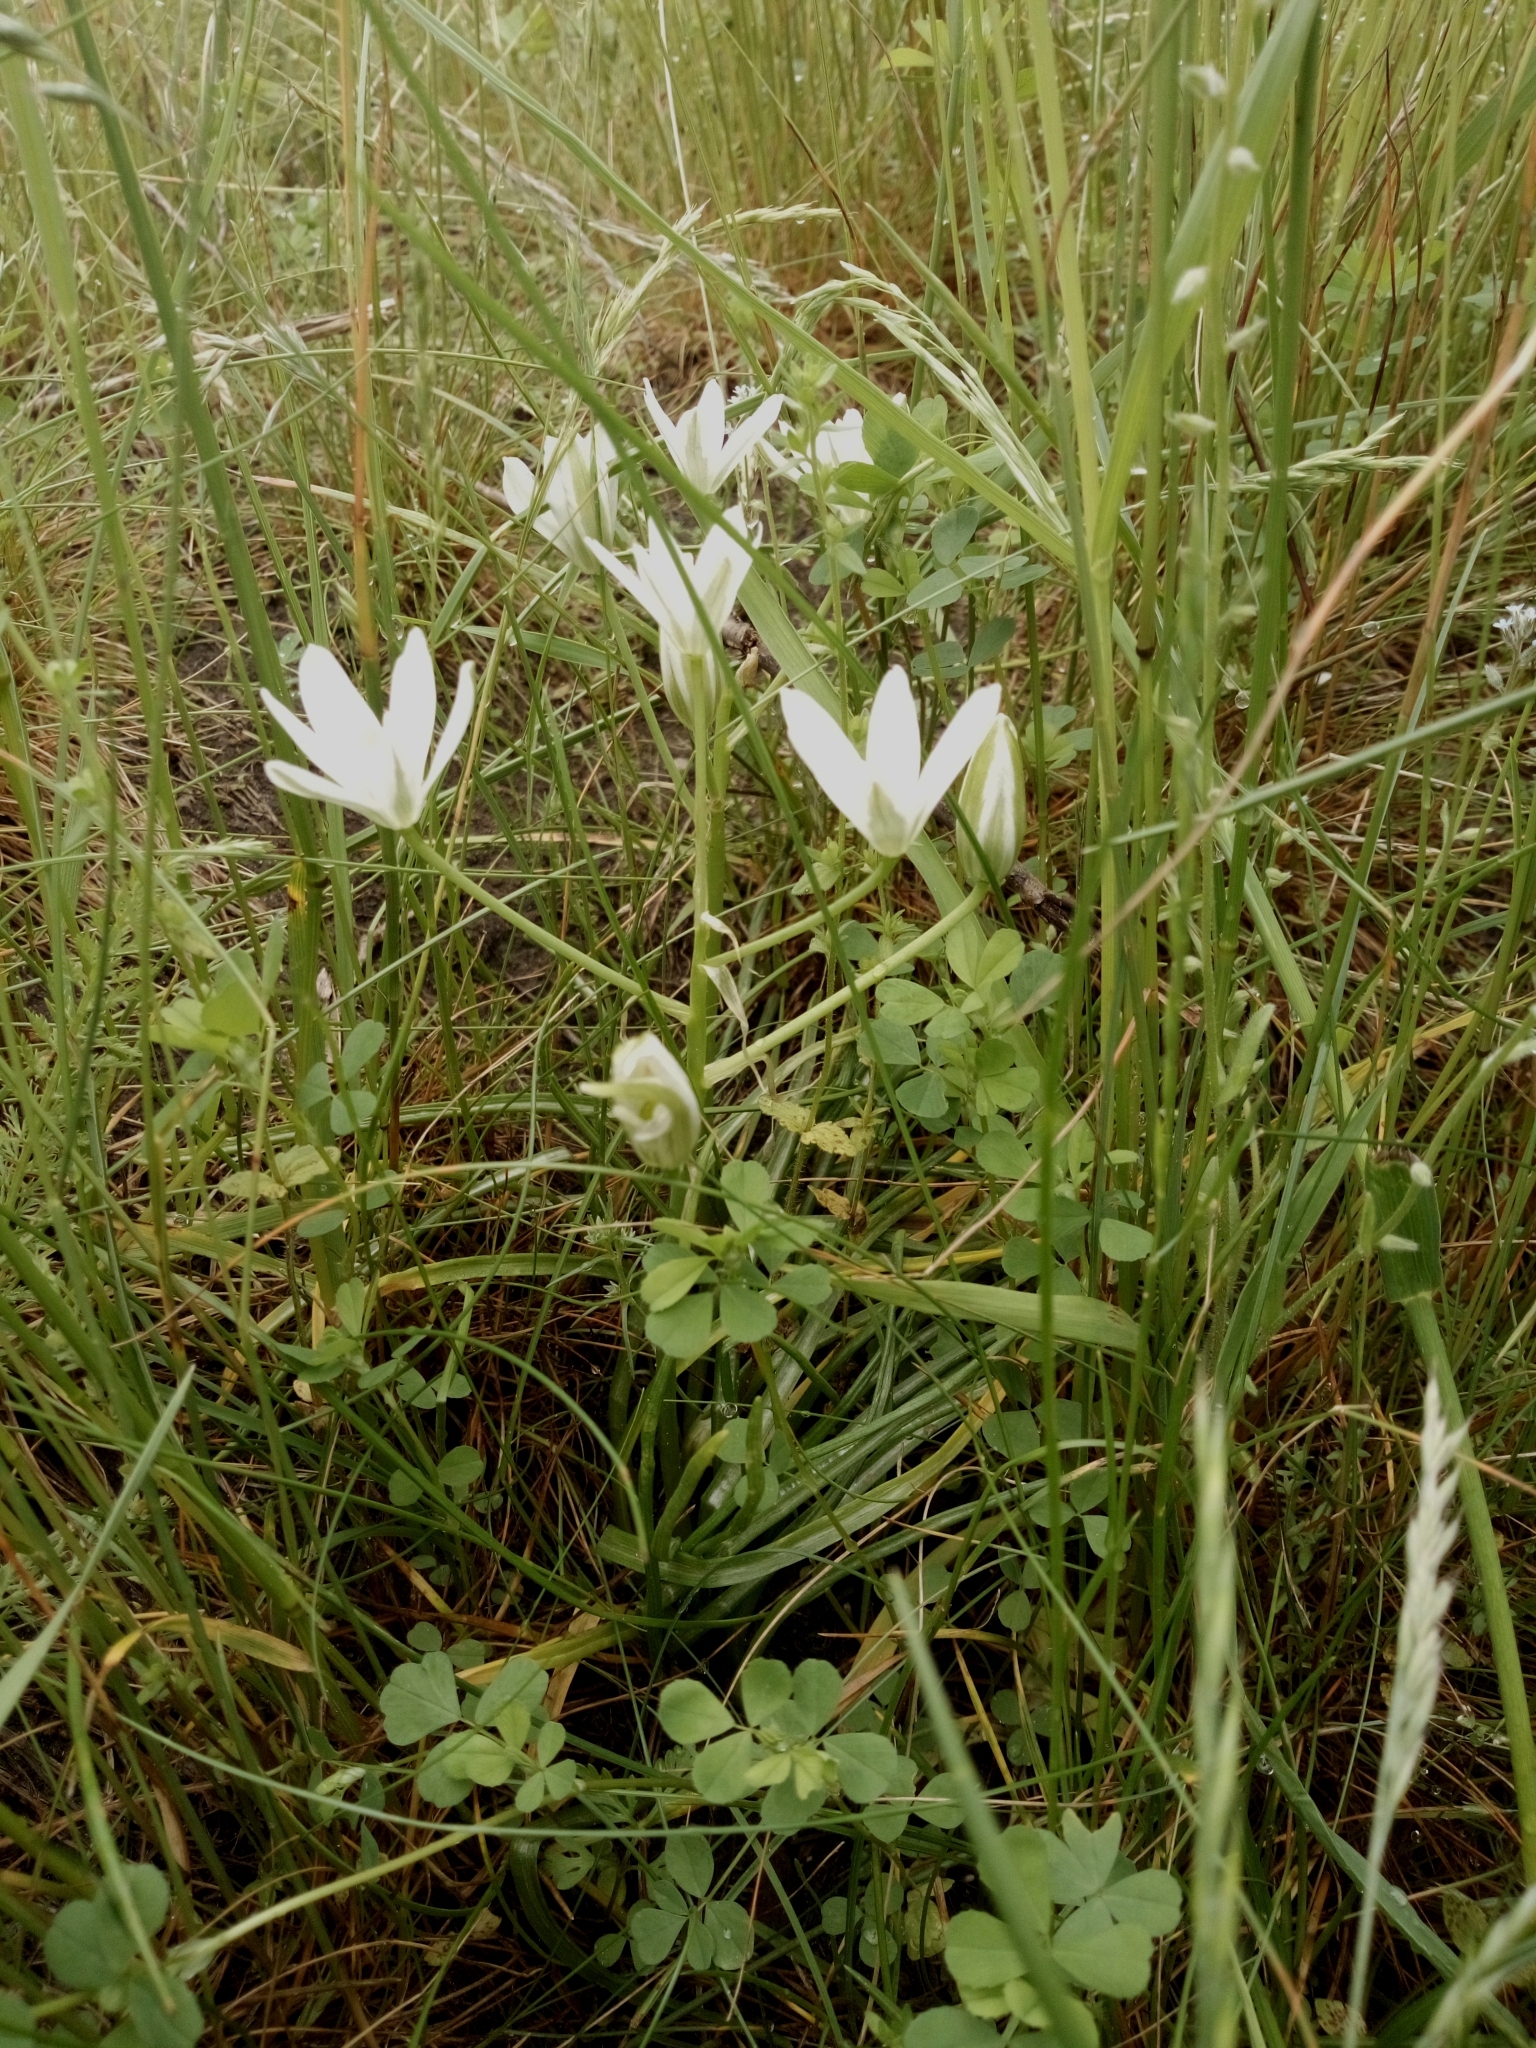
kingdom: Plantae
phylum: Tracheophyta
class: Liliopsida
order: Asparagales
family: Asparagaceae
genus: Ornithogalum
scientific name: Ornithogalum umbellatum
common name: Garden star-of-bethlehem
